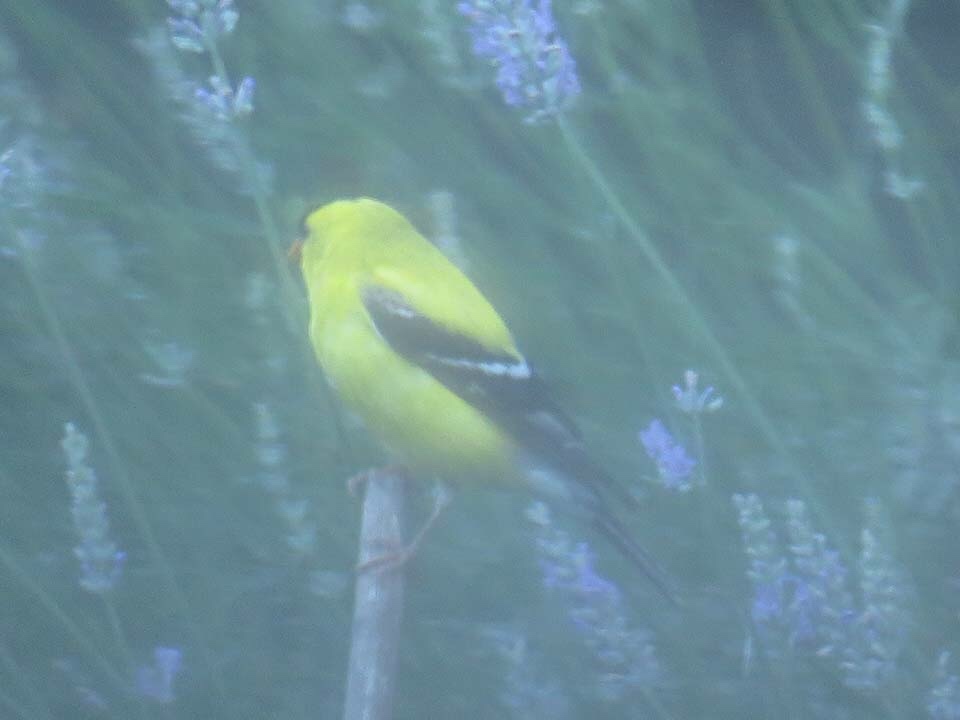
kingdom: Animalia
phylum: Chordata
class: Aves
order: Passeriformes
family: Fringillidae
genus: Spinus
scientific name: Spinus tristis
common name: American goldfinch
